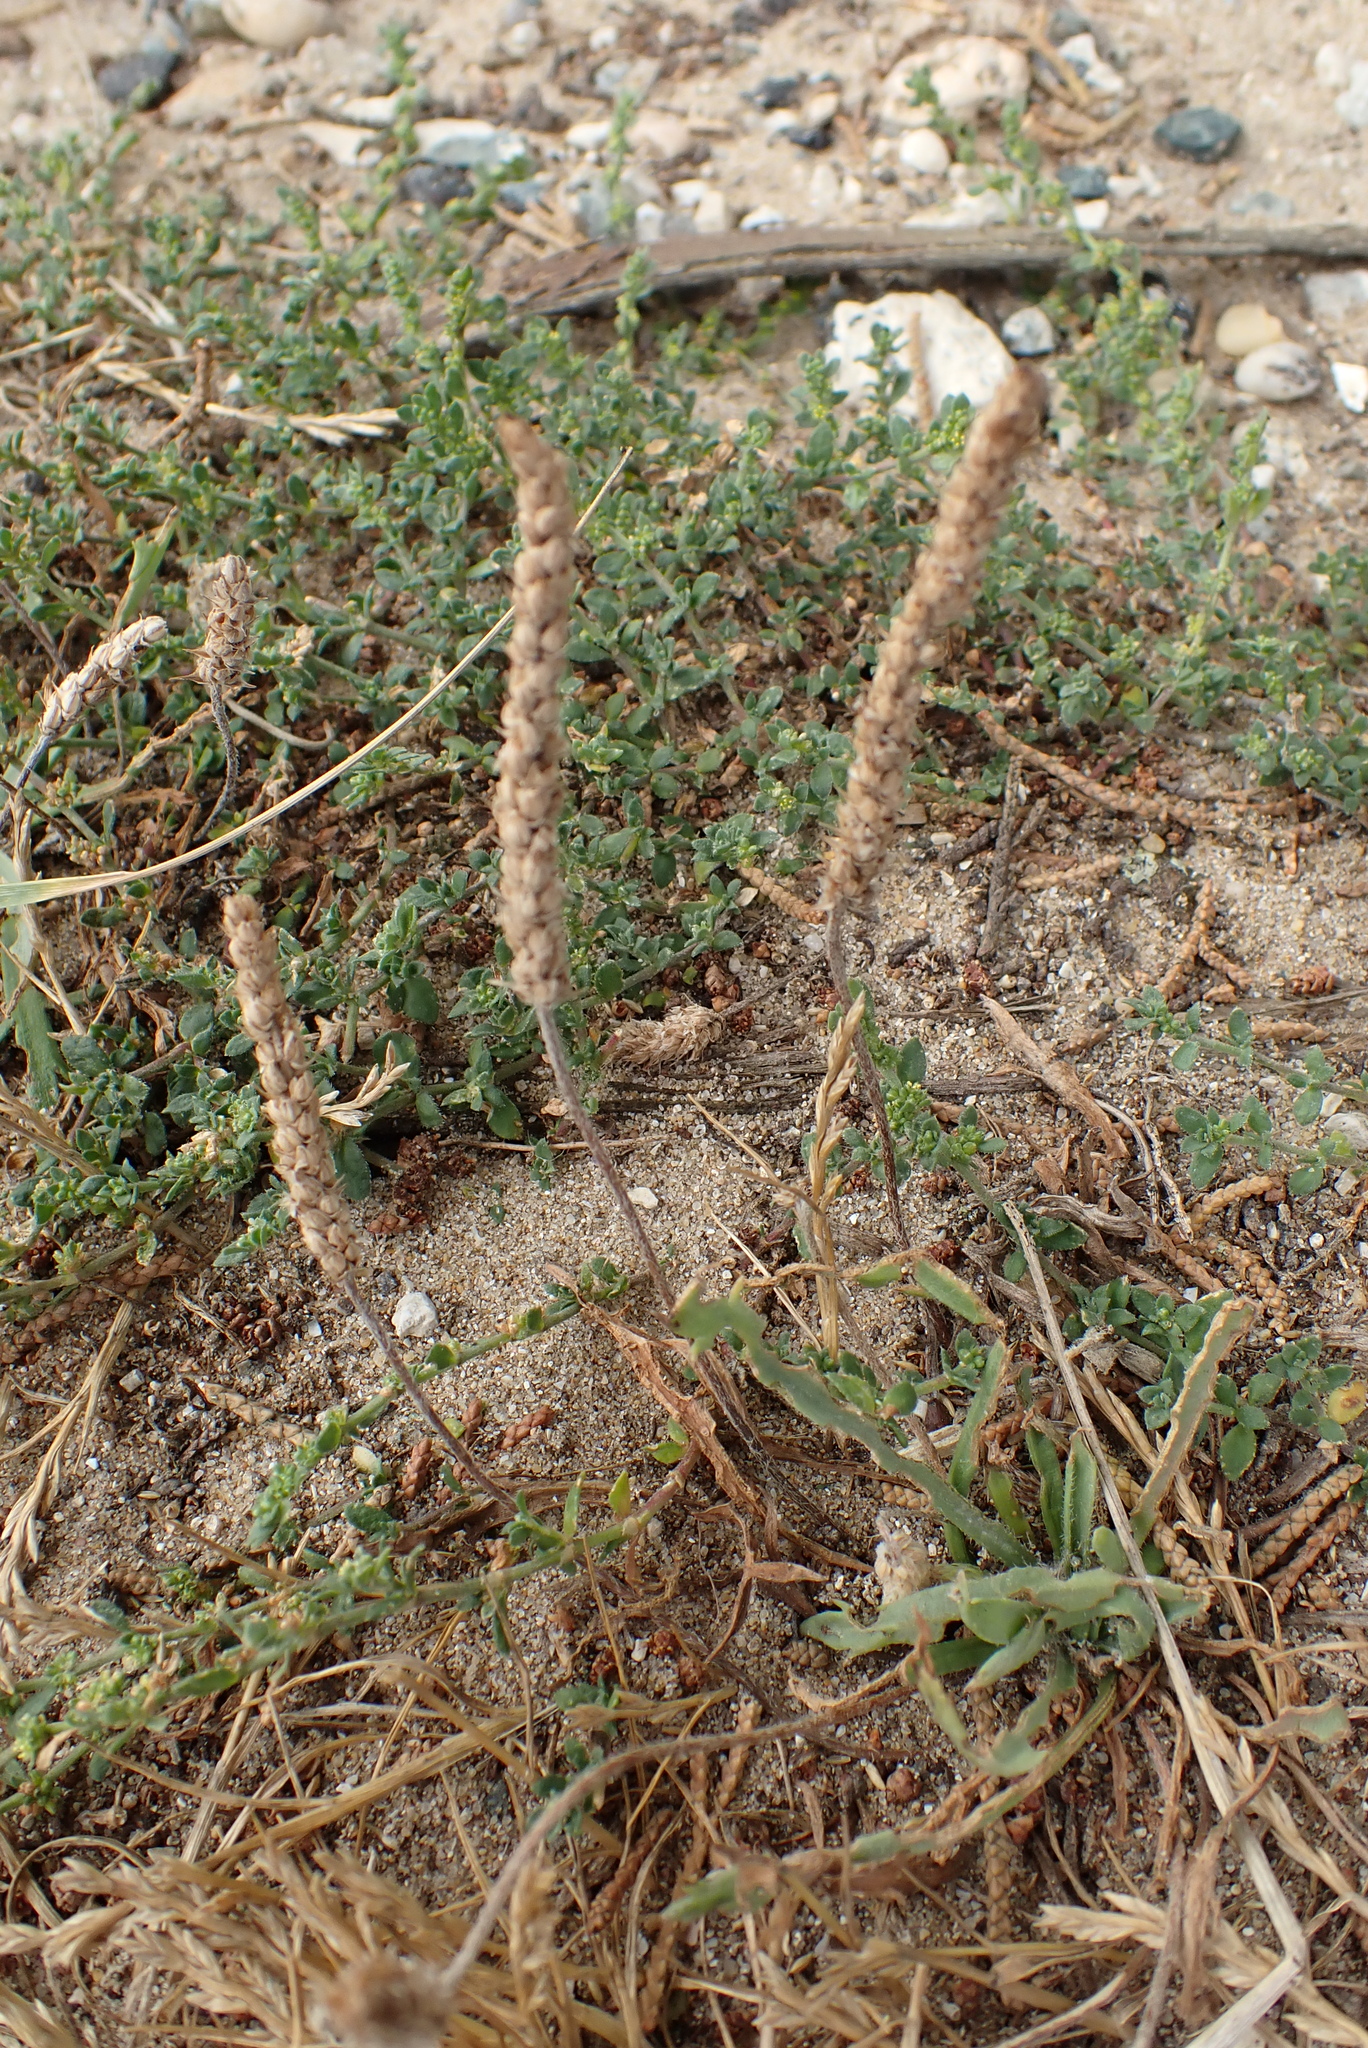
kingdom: Plantae
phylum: Tracheophyta
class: Magnoliopsida
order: Lamiales
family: Plantaginaceae
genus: Plantago
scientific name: Plantago coronopus
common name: Buck's-horn plantain
